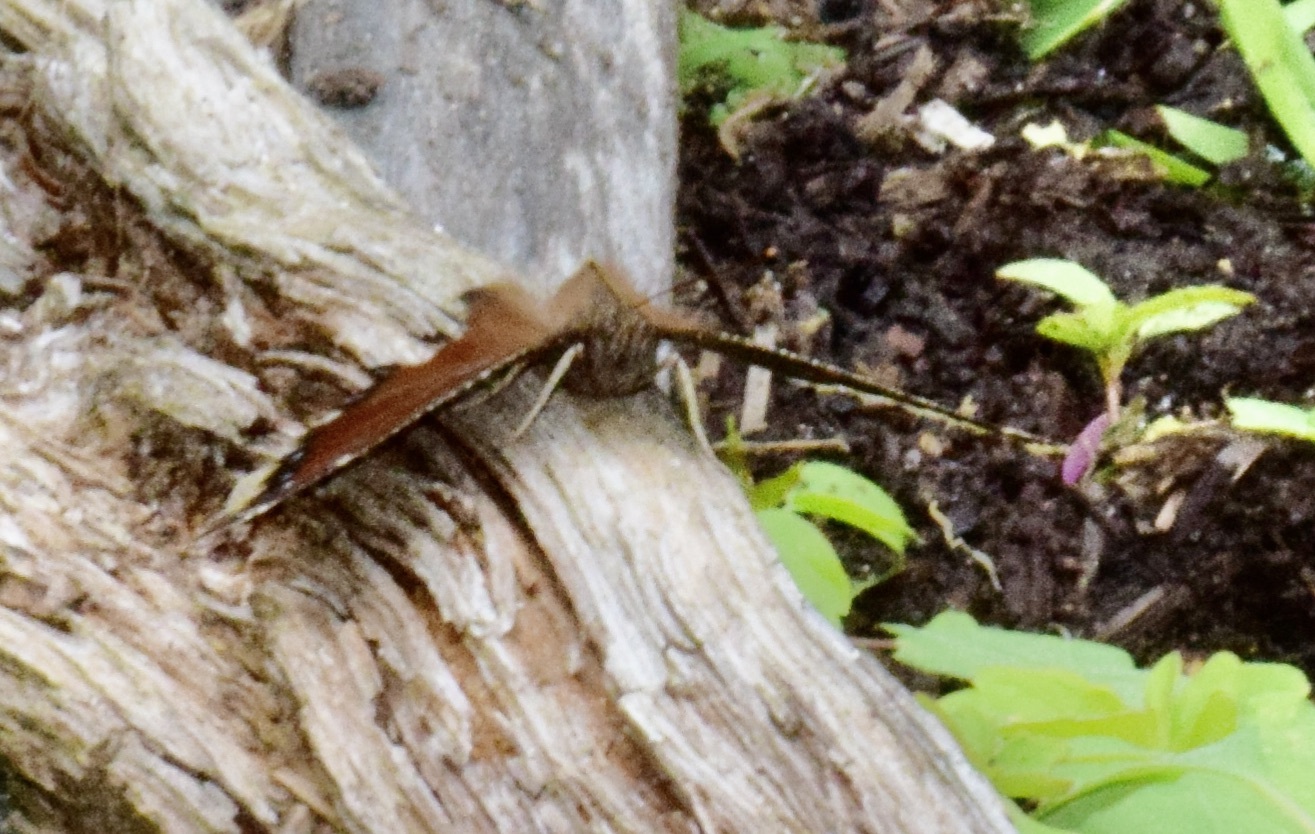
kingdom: Animalia
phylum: Arthropoda
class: Insecta
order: Lepidoptera
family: Nymphalidae
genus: Nymphalis
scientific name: Nymphalis antiopa
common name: Camberwell beauty
